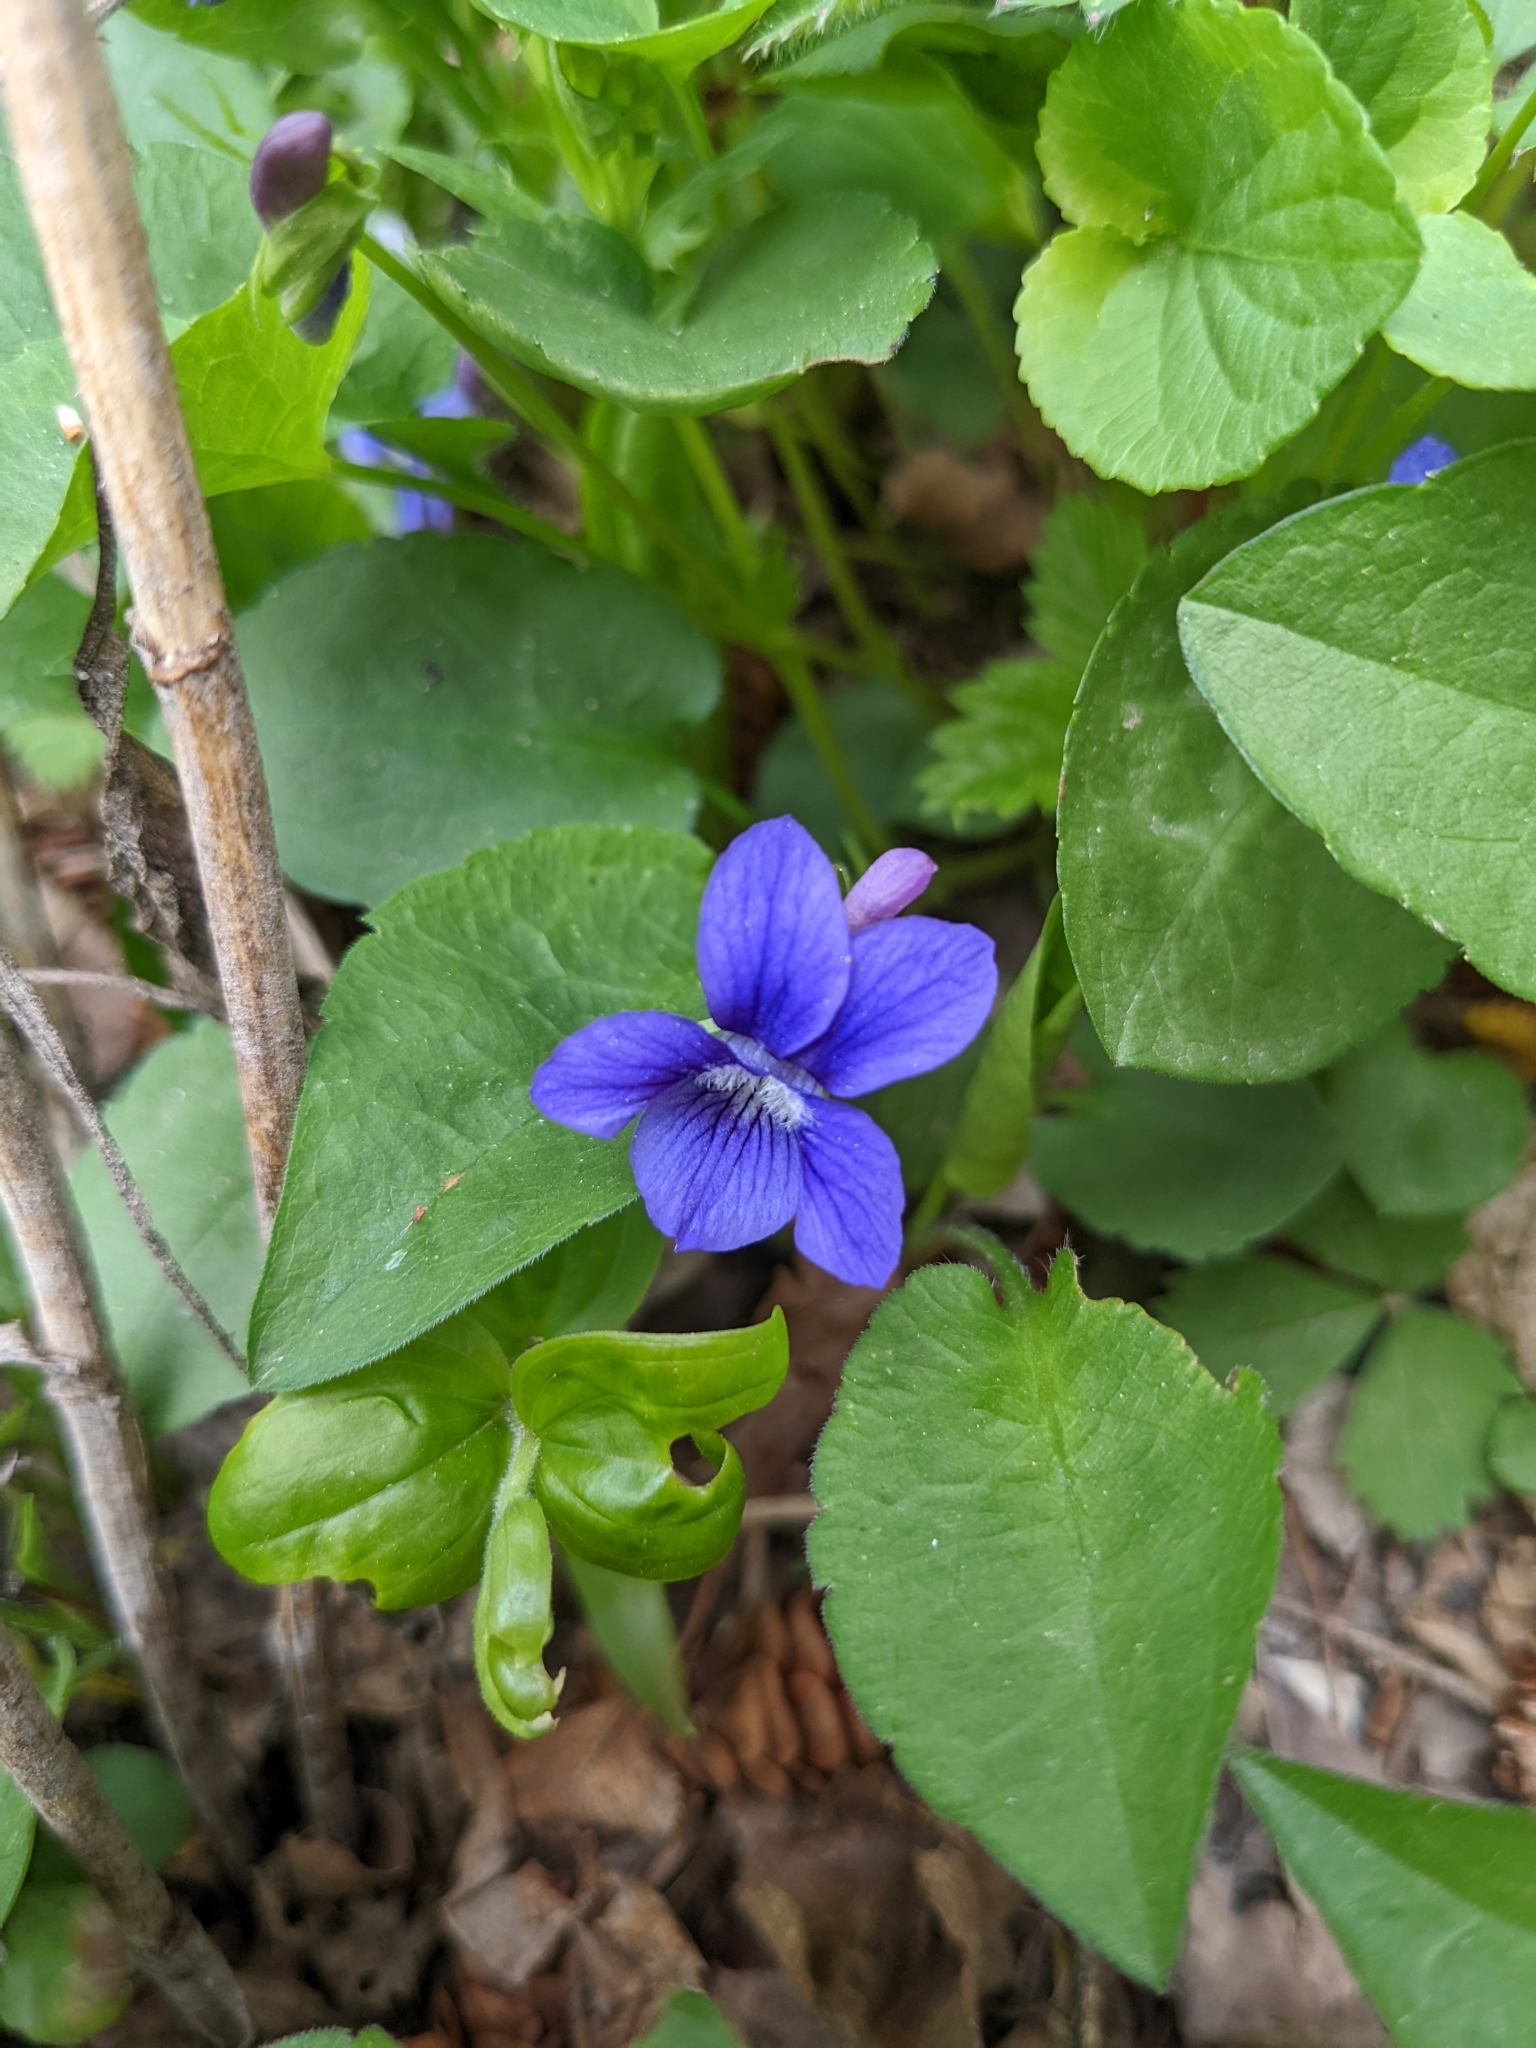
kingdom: Plantae
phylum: Tracheophyta
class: Magnoliopsida
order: Malpighiales
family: Violaceae
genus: Viola
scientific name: Viola adunca
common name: Sand violet
